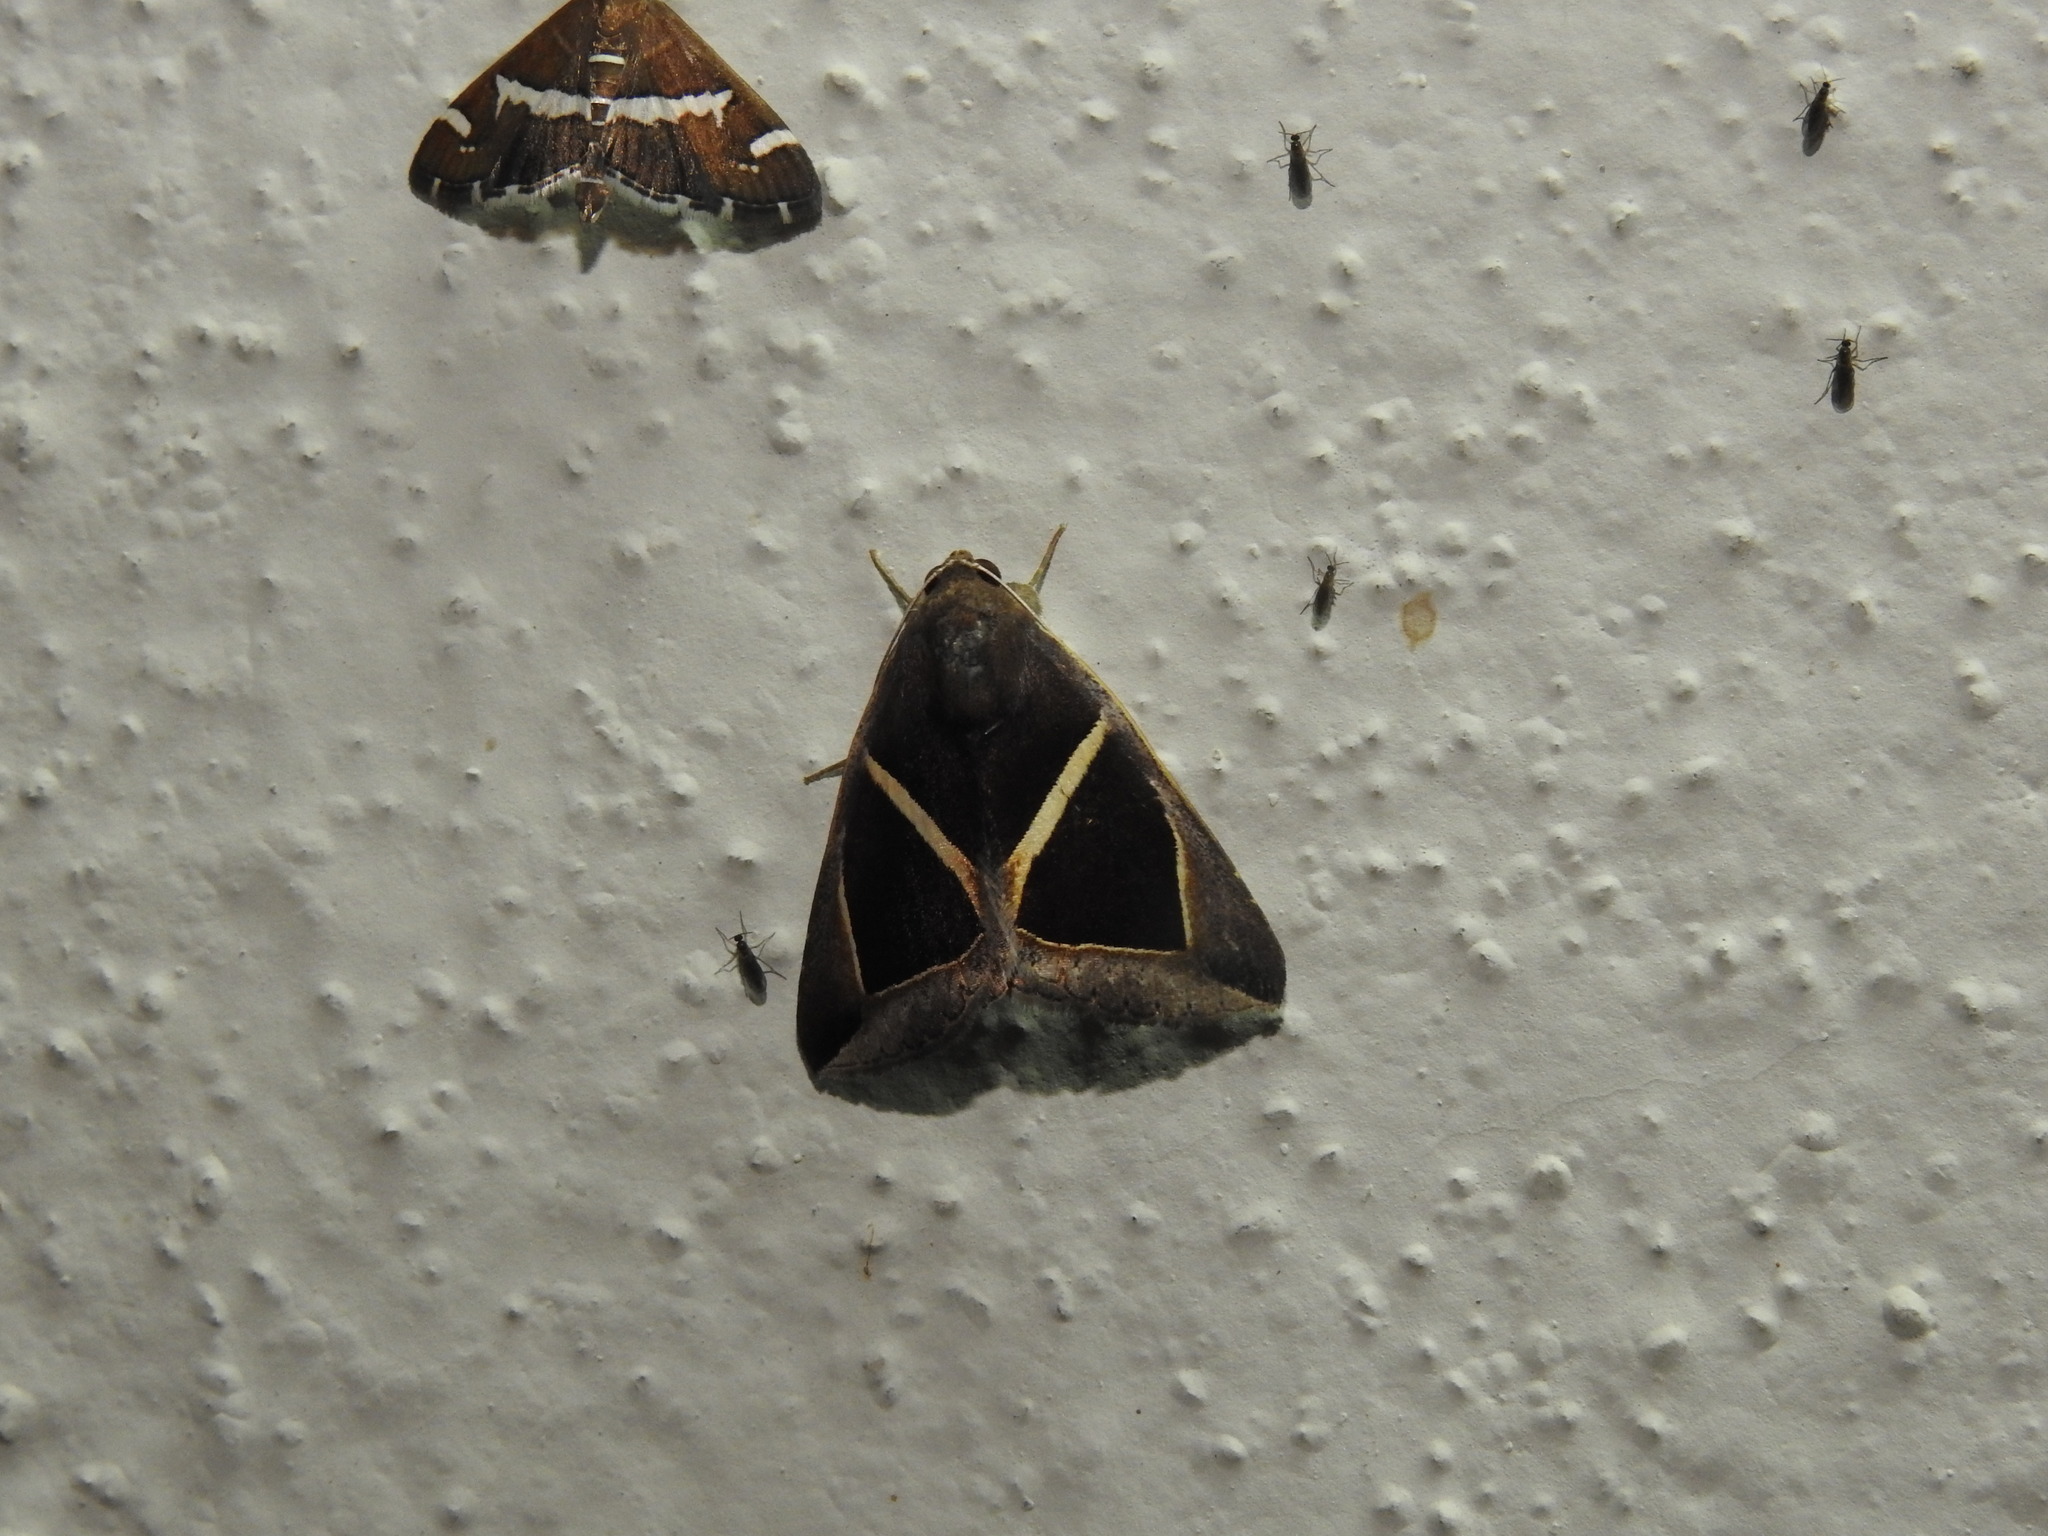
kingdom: Animalia
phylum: Arthropoda
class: Insecta
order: Lepidoptera
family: Erebidae
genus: Chalciope
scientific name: Chalciope mygdon
